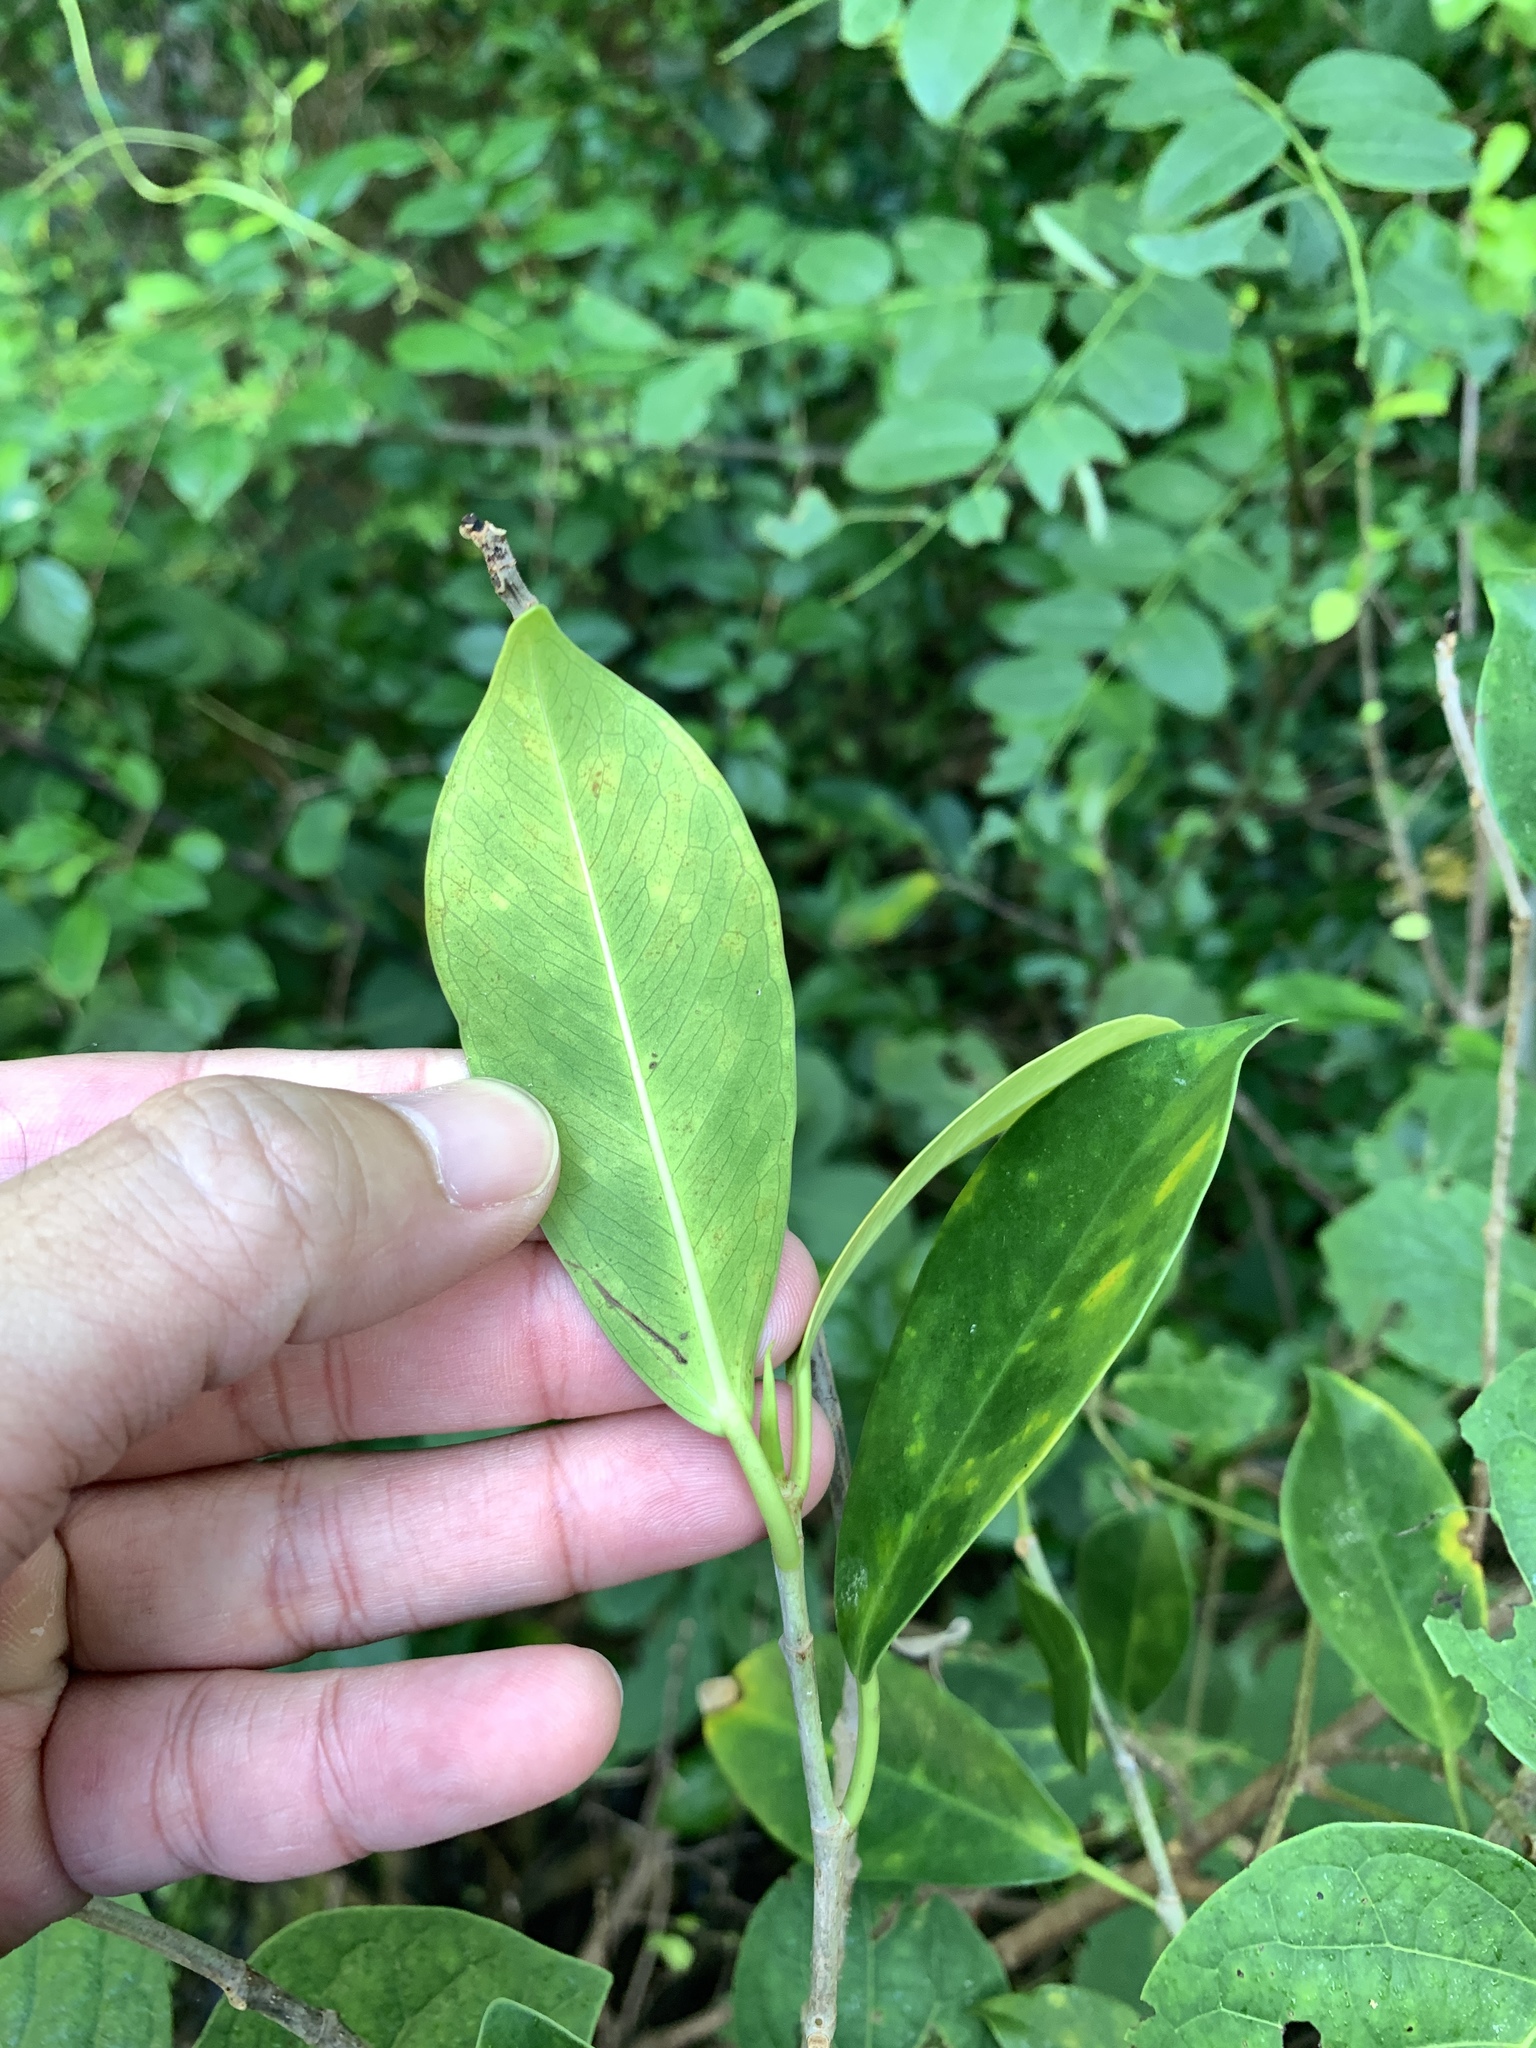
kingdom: Plantae
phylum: Tracheophyta
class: Magnoliopsida
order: Rosales
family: Moraceae
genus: Ficus
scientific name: Ficus microcarpa
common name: Chinese banyan
